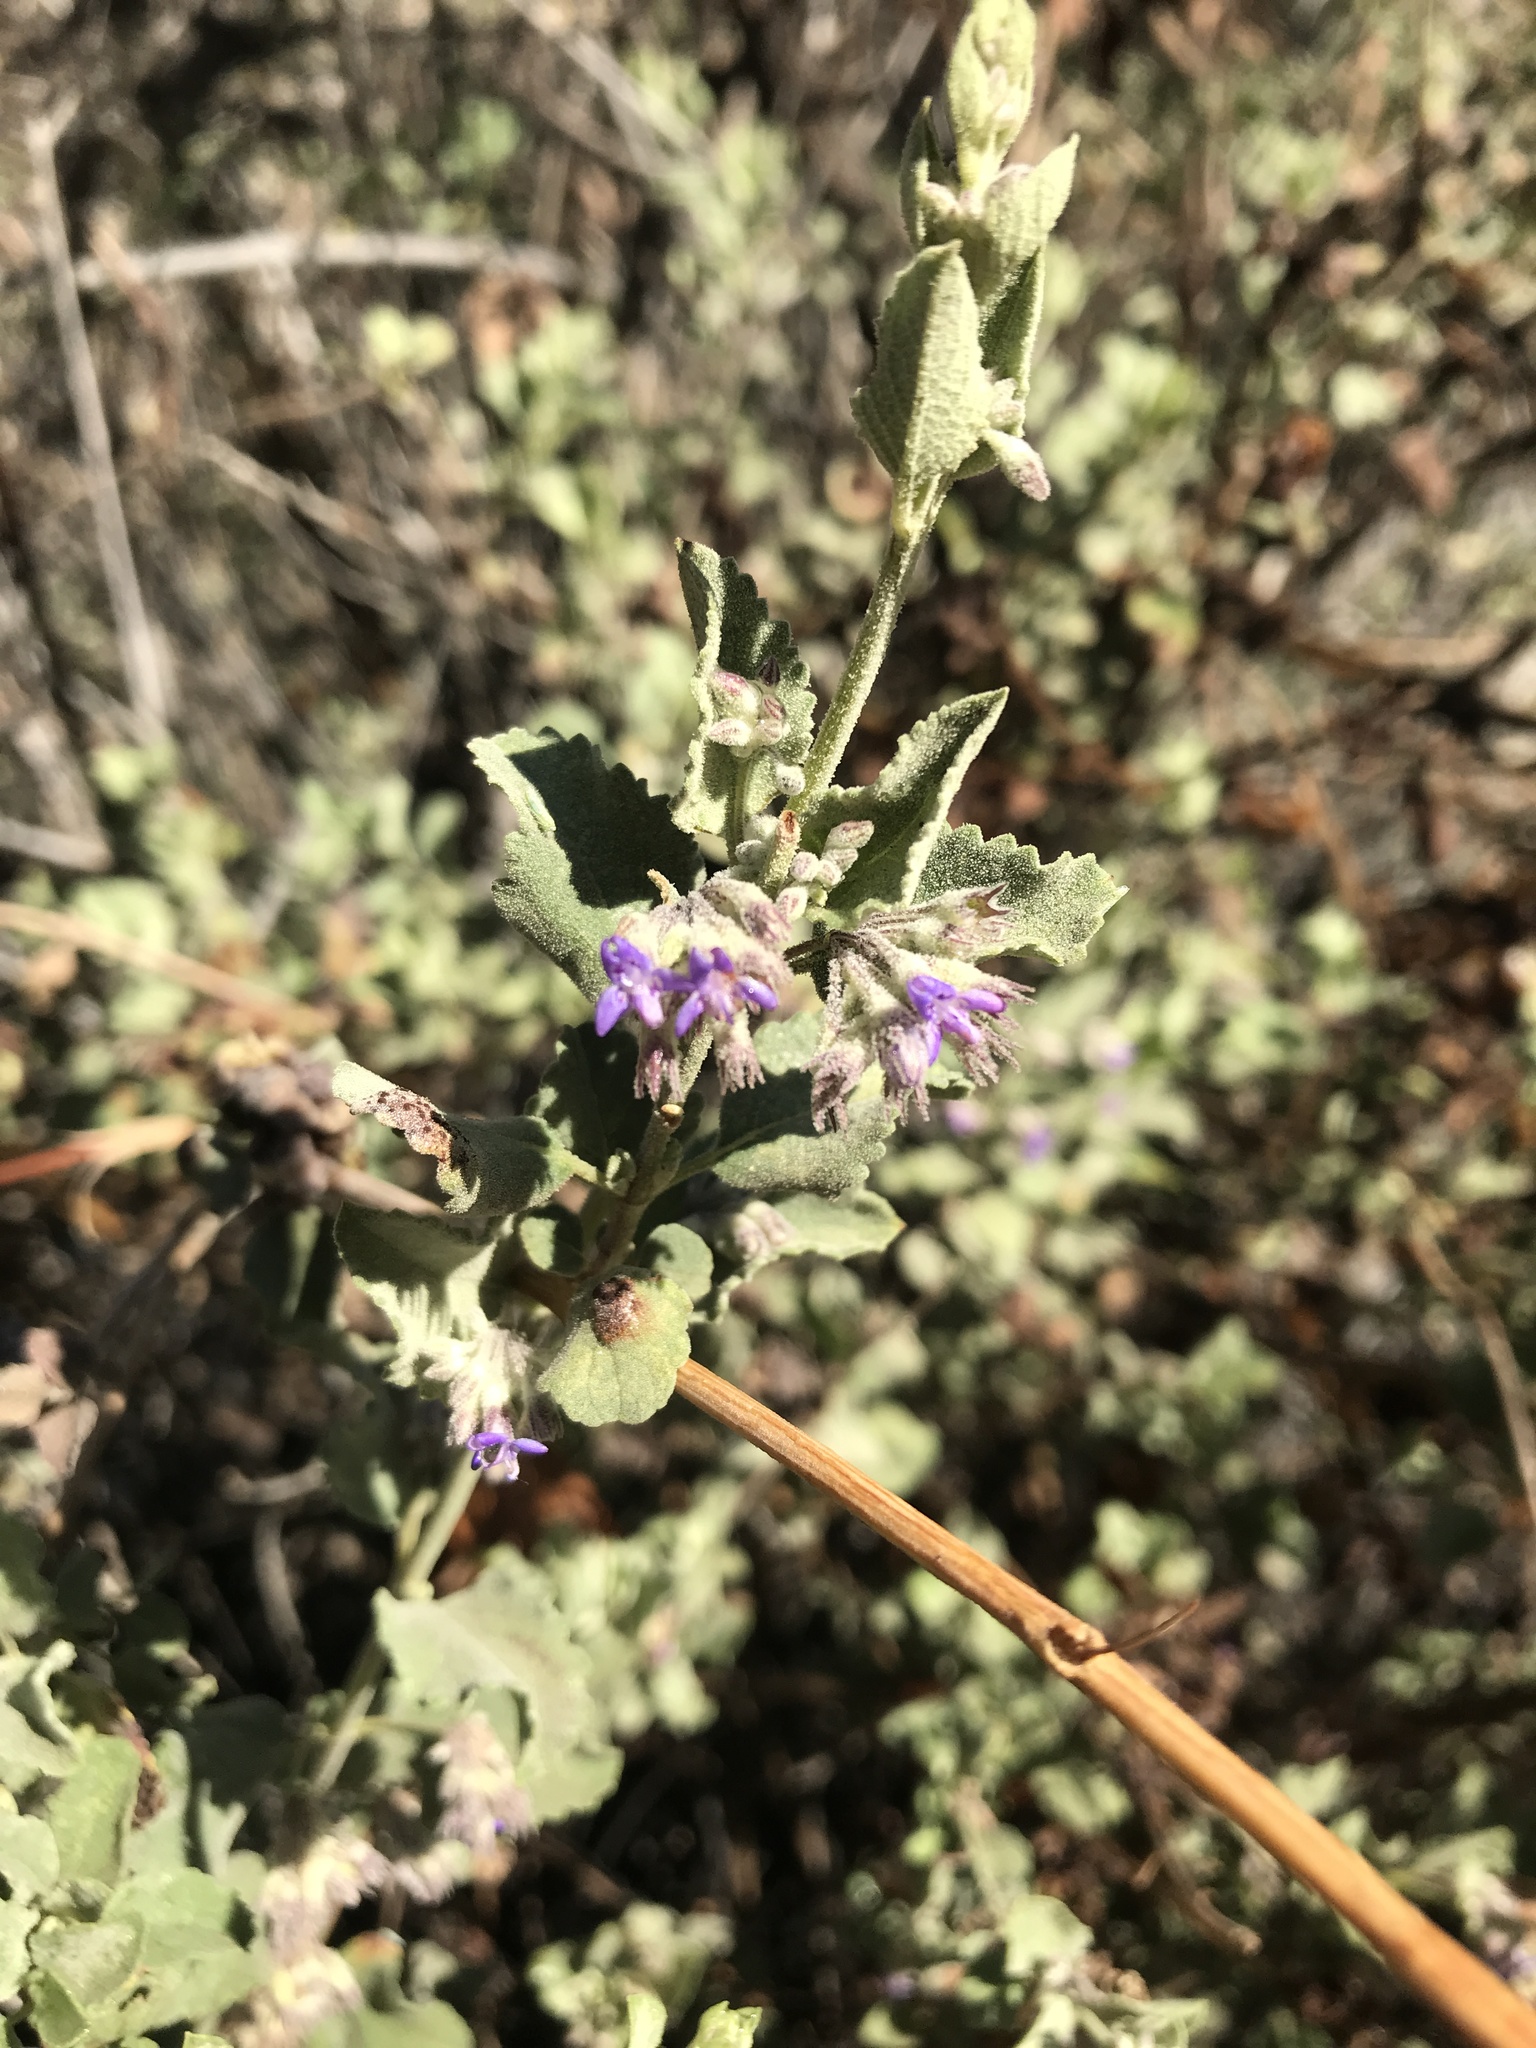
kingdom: Plantae
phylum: Tracheophyta
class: Magnoliopsida
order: Lamiales
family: Lamiaceae
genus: Condea
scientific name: Condea emoryi
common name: Chia
